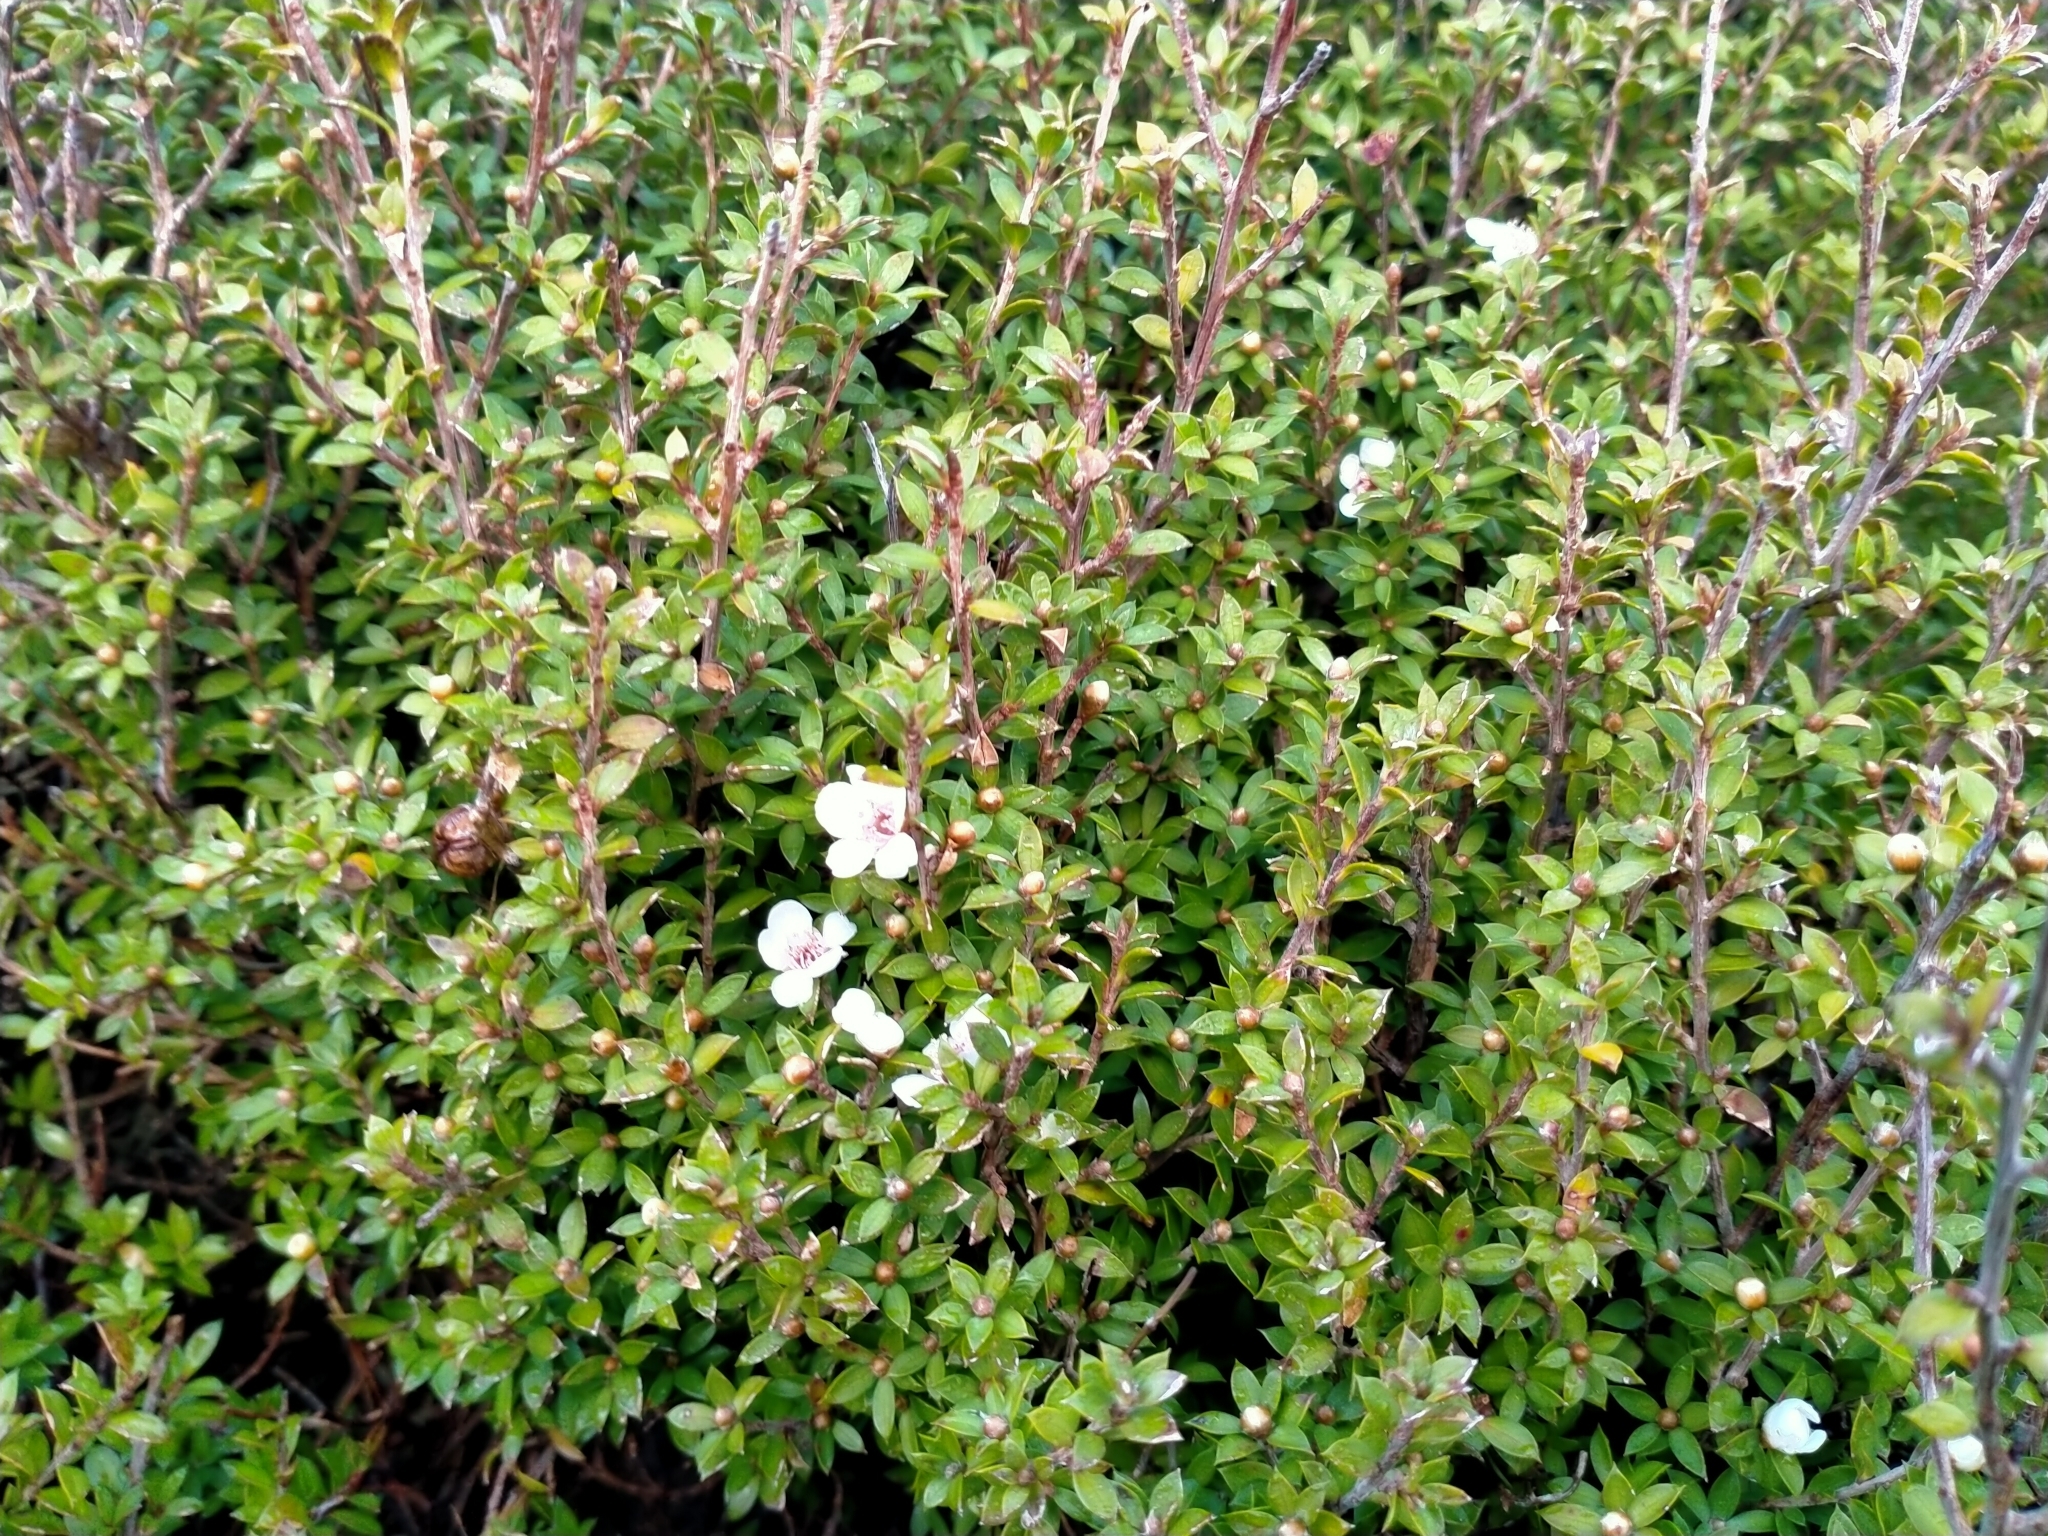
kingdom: Plantae
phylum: Tracheophyta
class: Magnoliopsida
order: Myrtales
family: Myrtaceae
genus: Leptospermum
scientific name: Leptospermum scoparium
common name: Broom tea-tree
